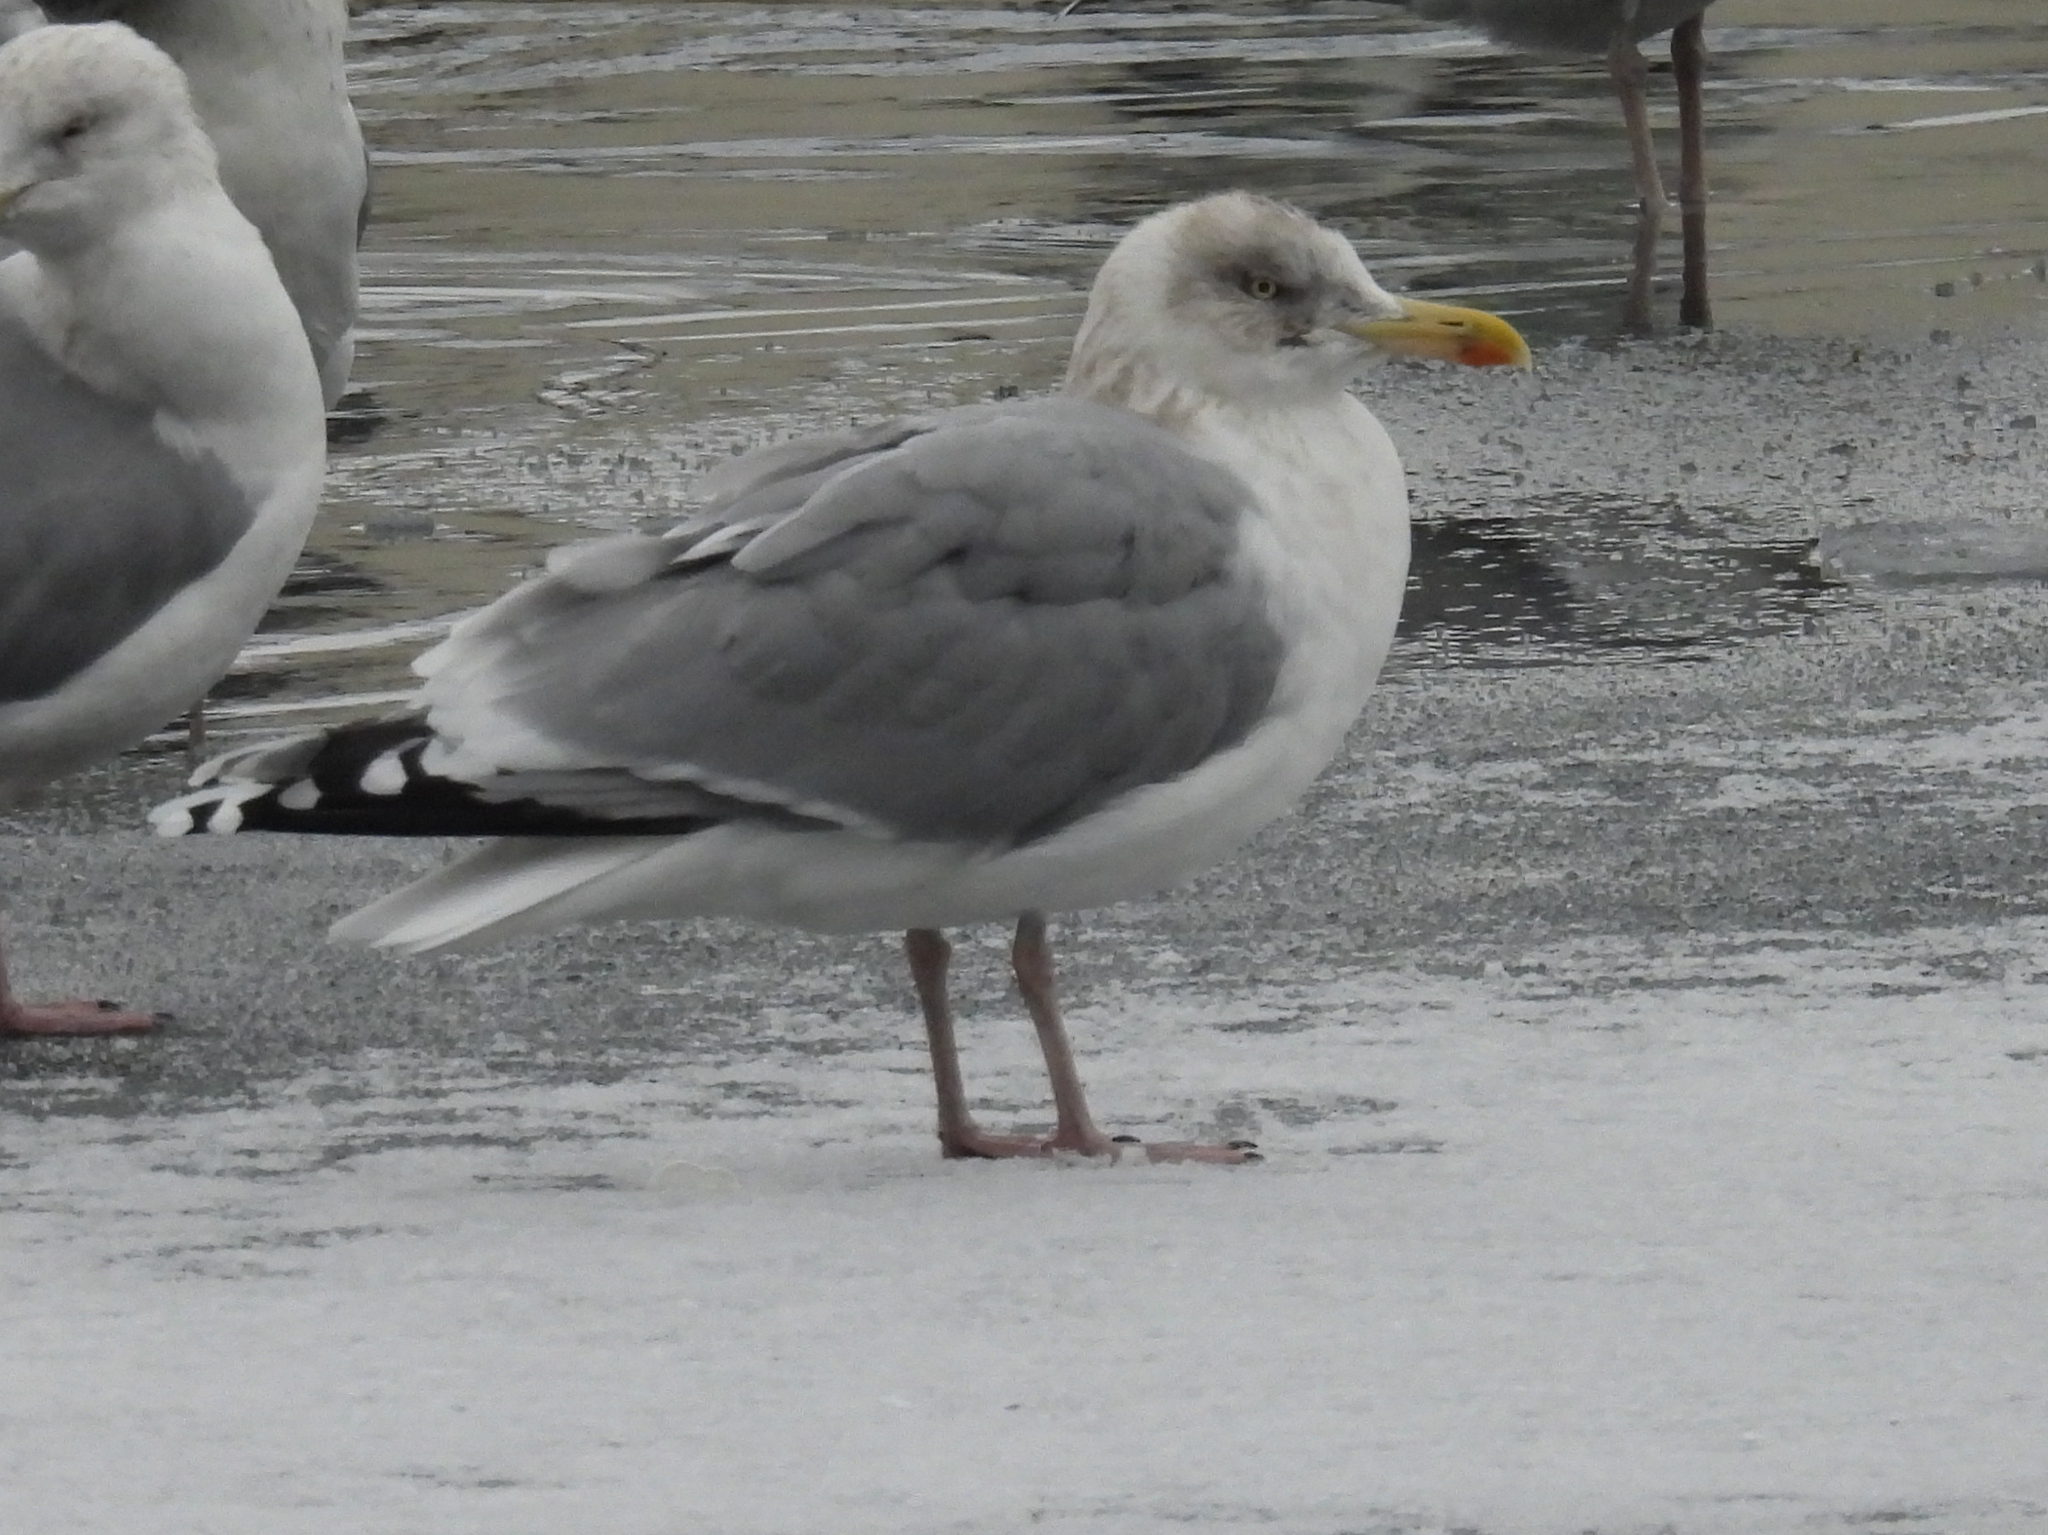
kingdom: Animalia
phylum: Chordata
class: Aves
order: Charadriiformes
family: Laridae
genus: Larus
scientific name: Larus argentatus
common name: Herring gull
